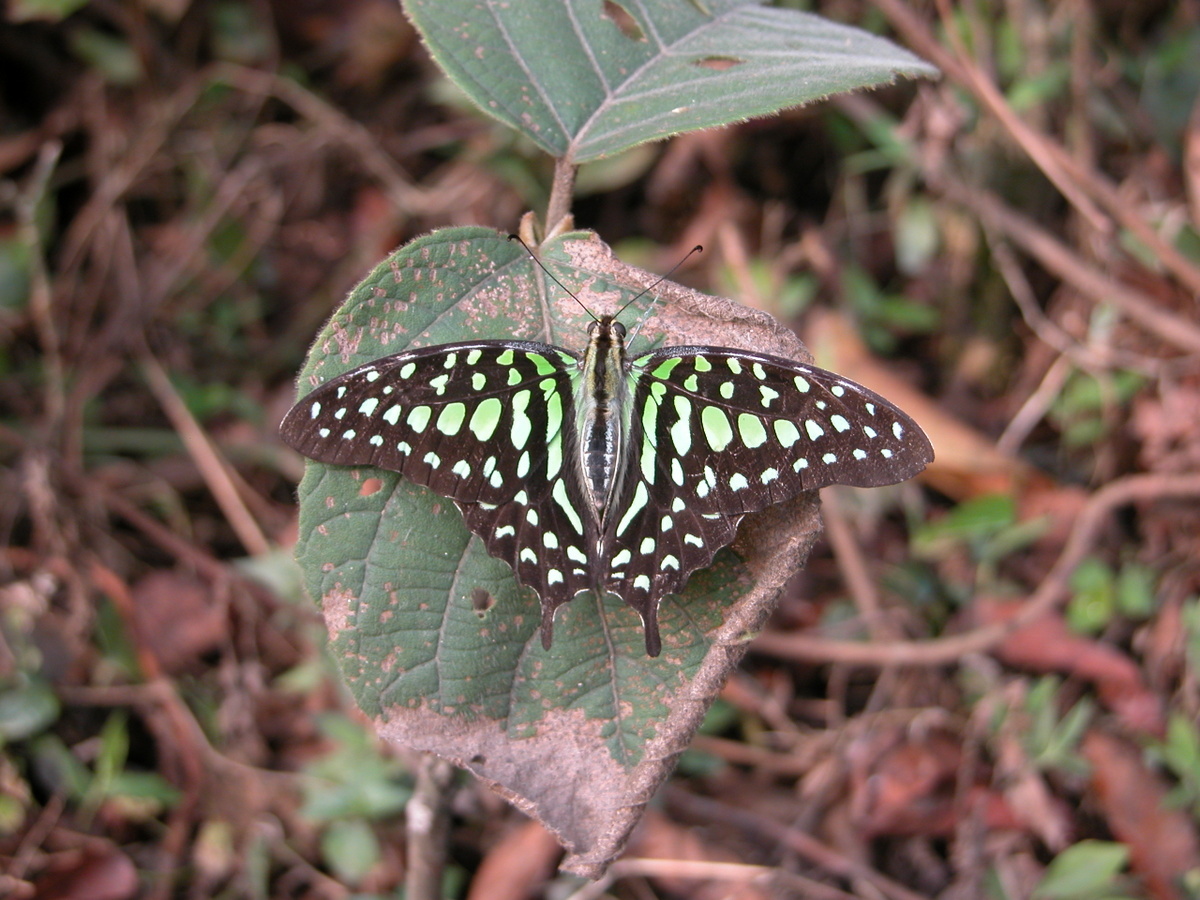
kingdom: Animalia
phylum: Arthropoda
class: Insecta
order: Lepidoptera
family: Papilionidae
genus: Graphium
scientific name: Graphium agamemnon
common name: Tailed jay
